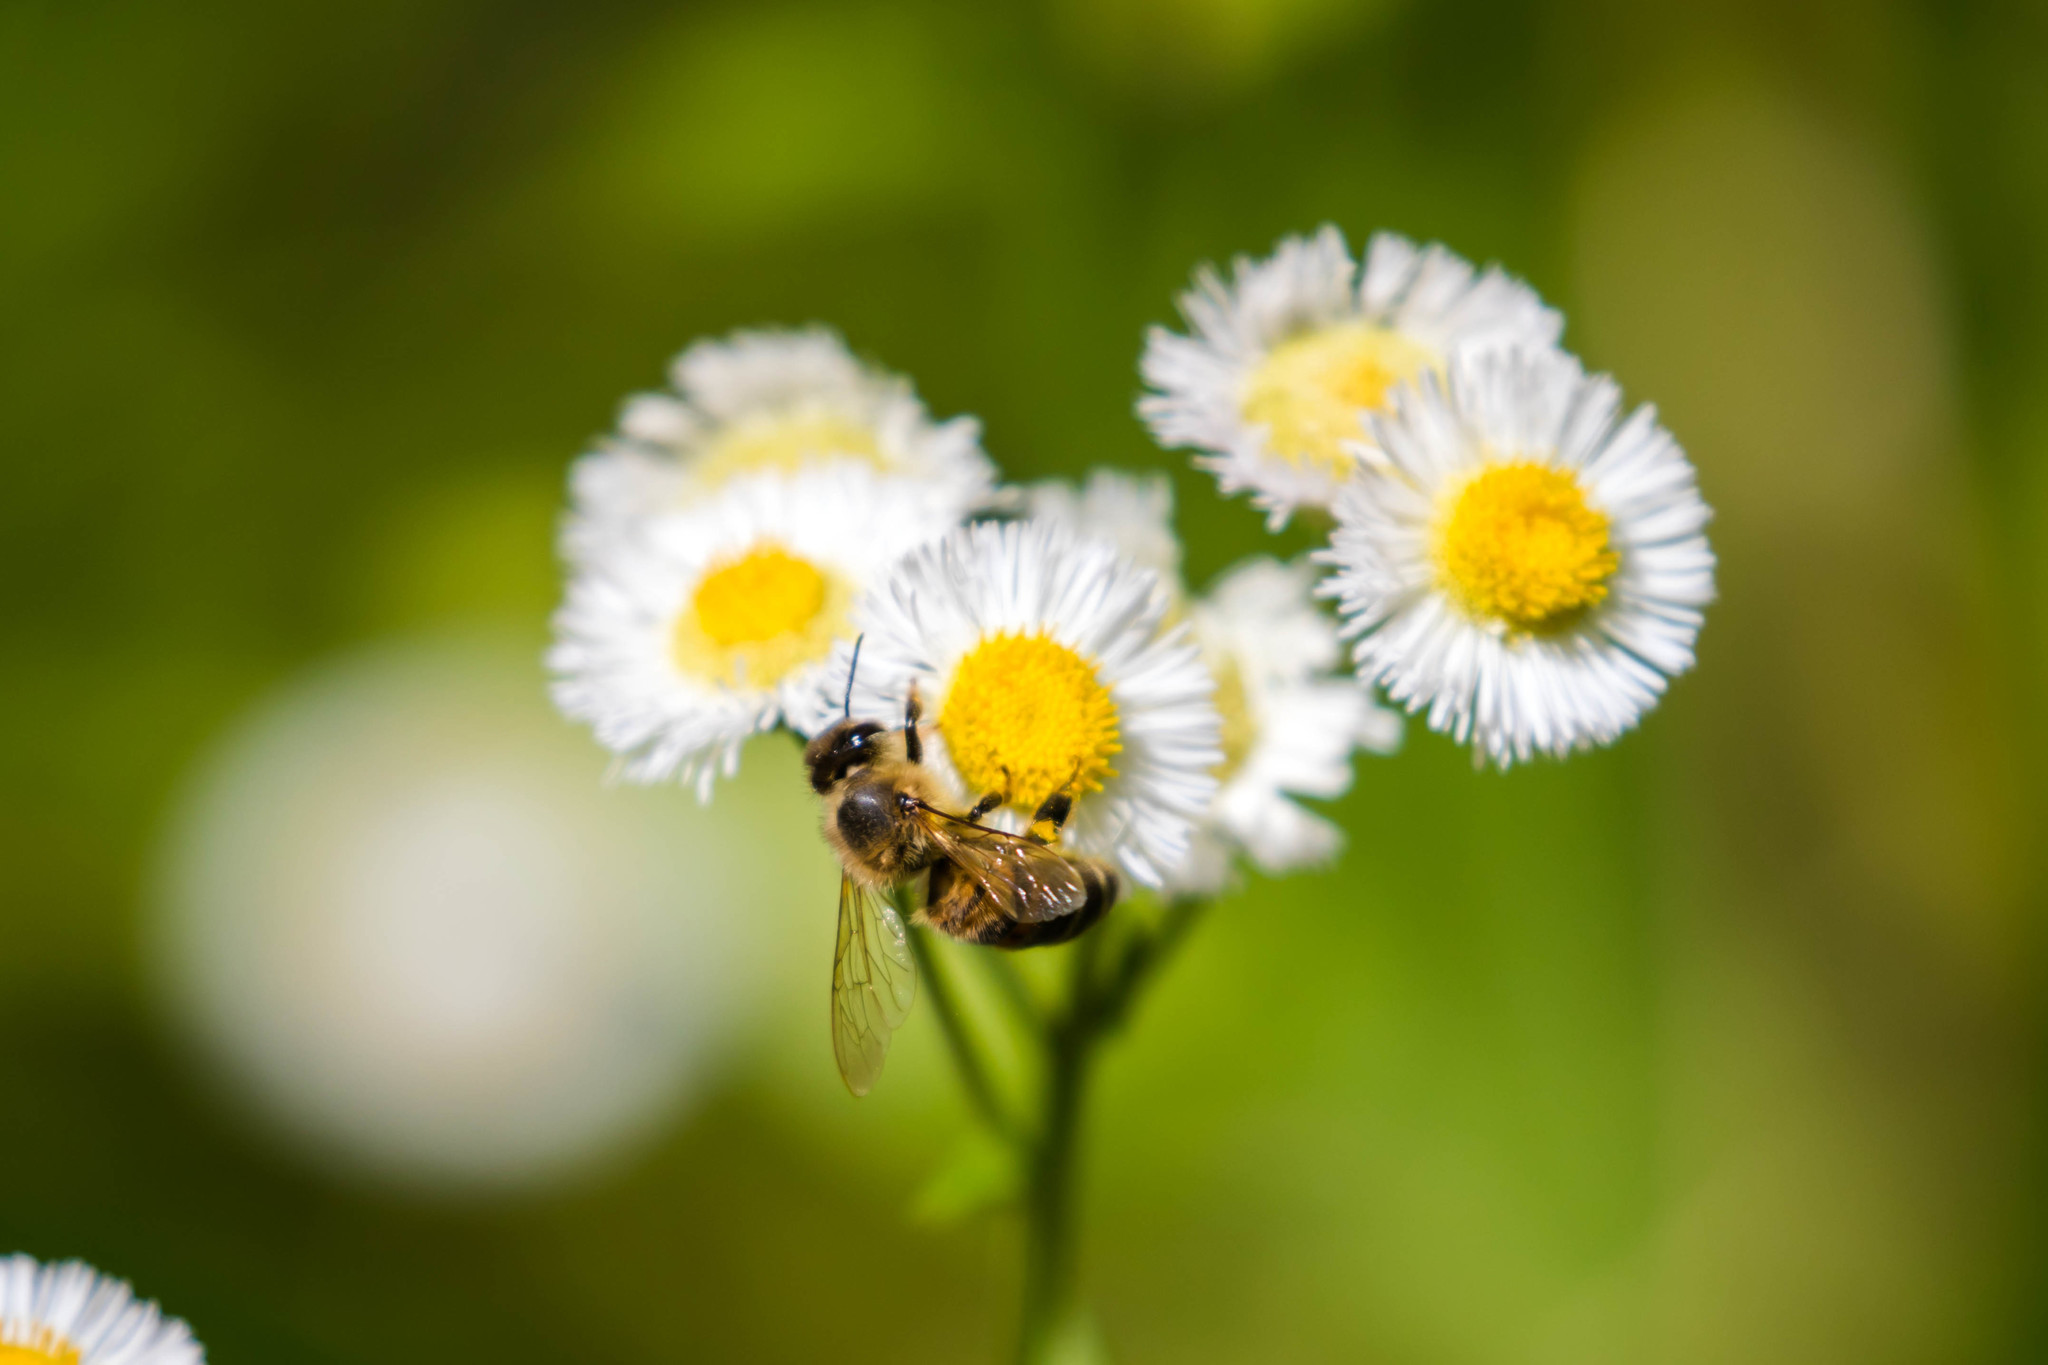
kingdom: Animalia
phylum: Arthropoda
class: Insecta
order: Hymenoptera
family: Apidae
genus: Apis
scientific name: Apis mellifera
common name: Honey bee
